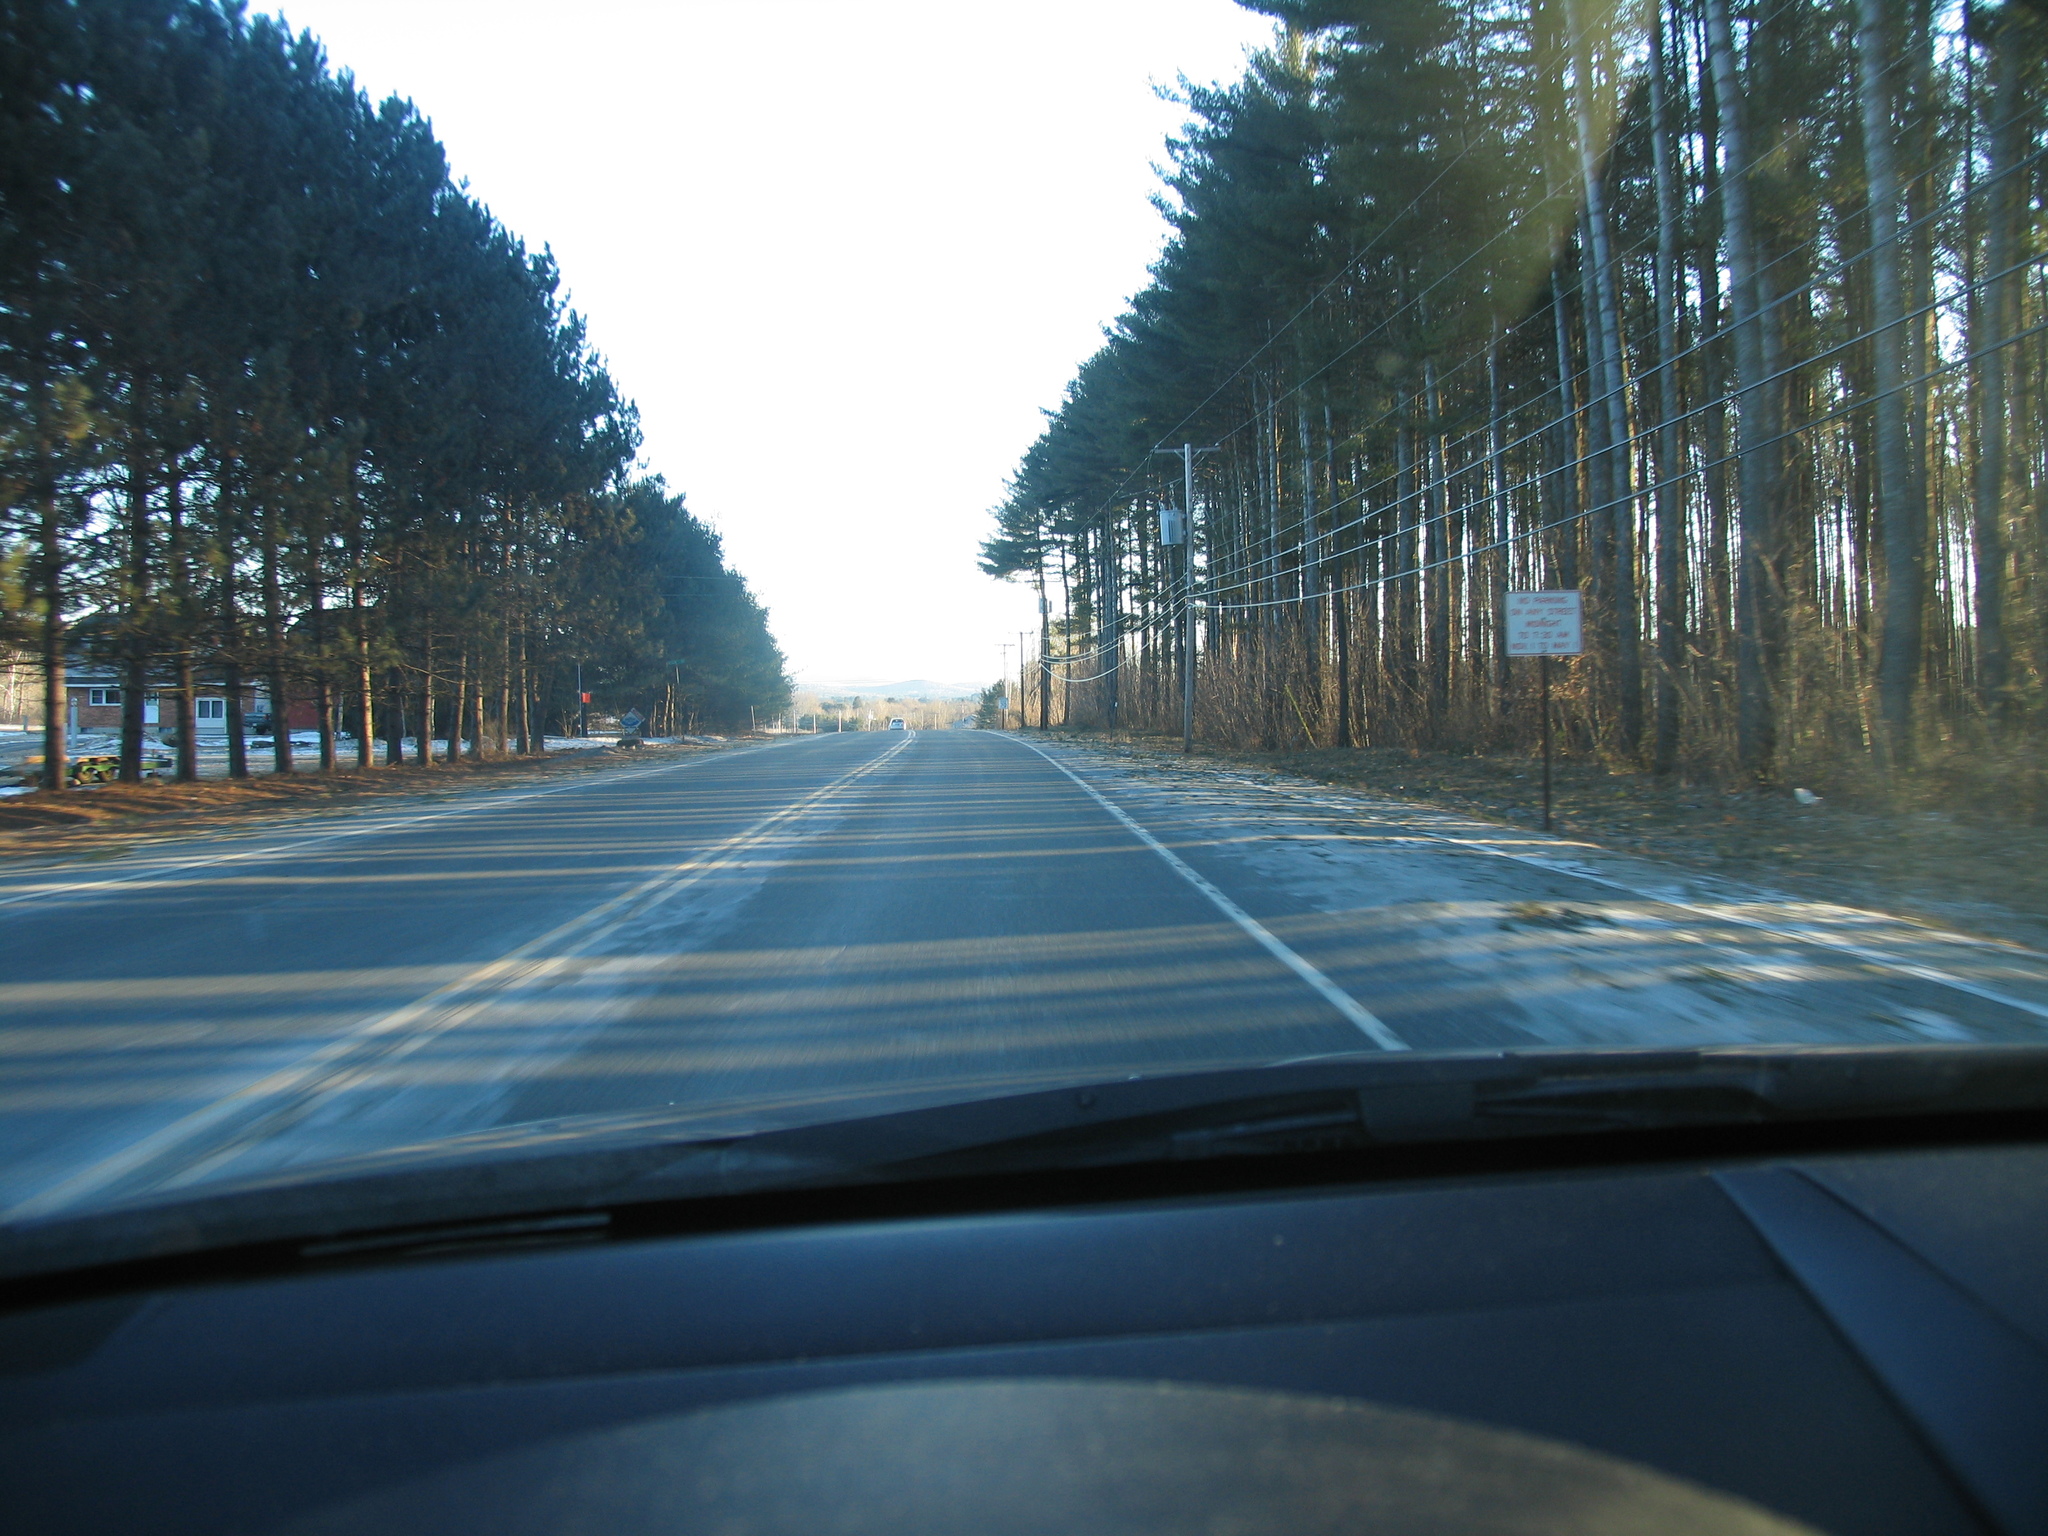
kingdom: Plantae
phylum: Tracheophyta
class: Pinopsida
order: Pinales
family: Pinaceae
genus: Pinus
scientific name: Pinus strobus
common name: Weymouth pine
